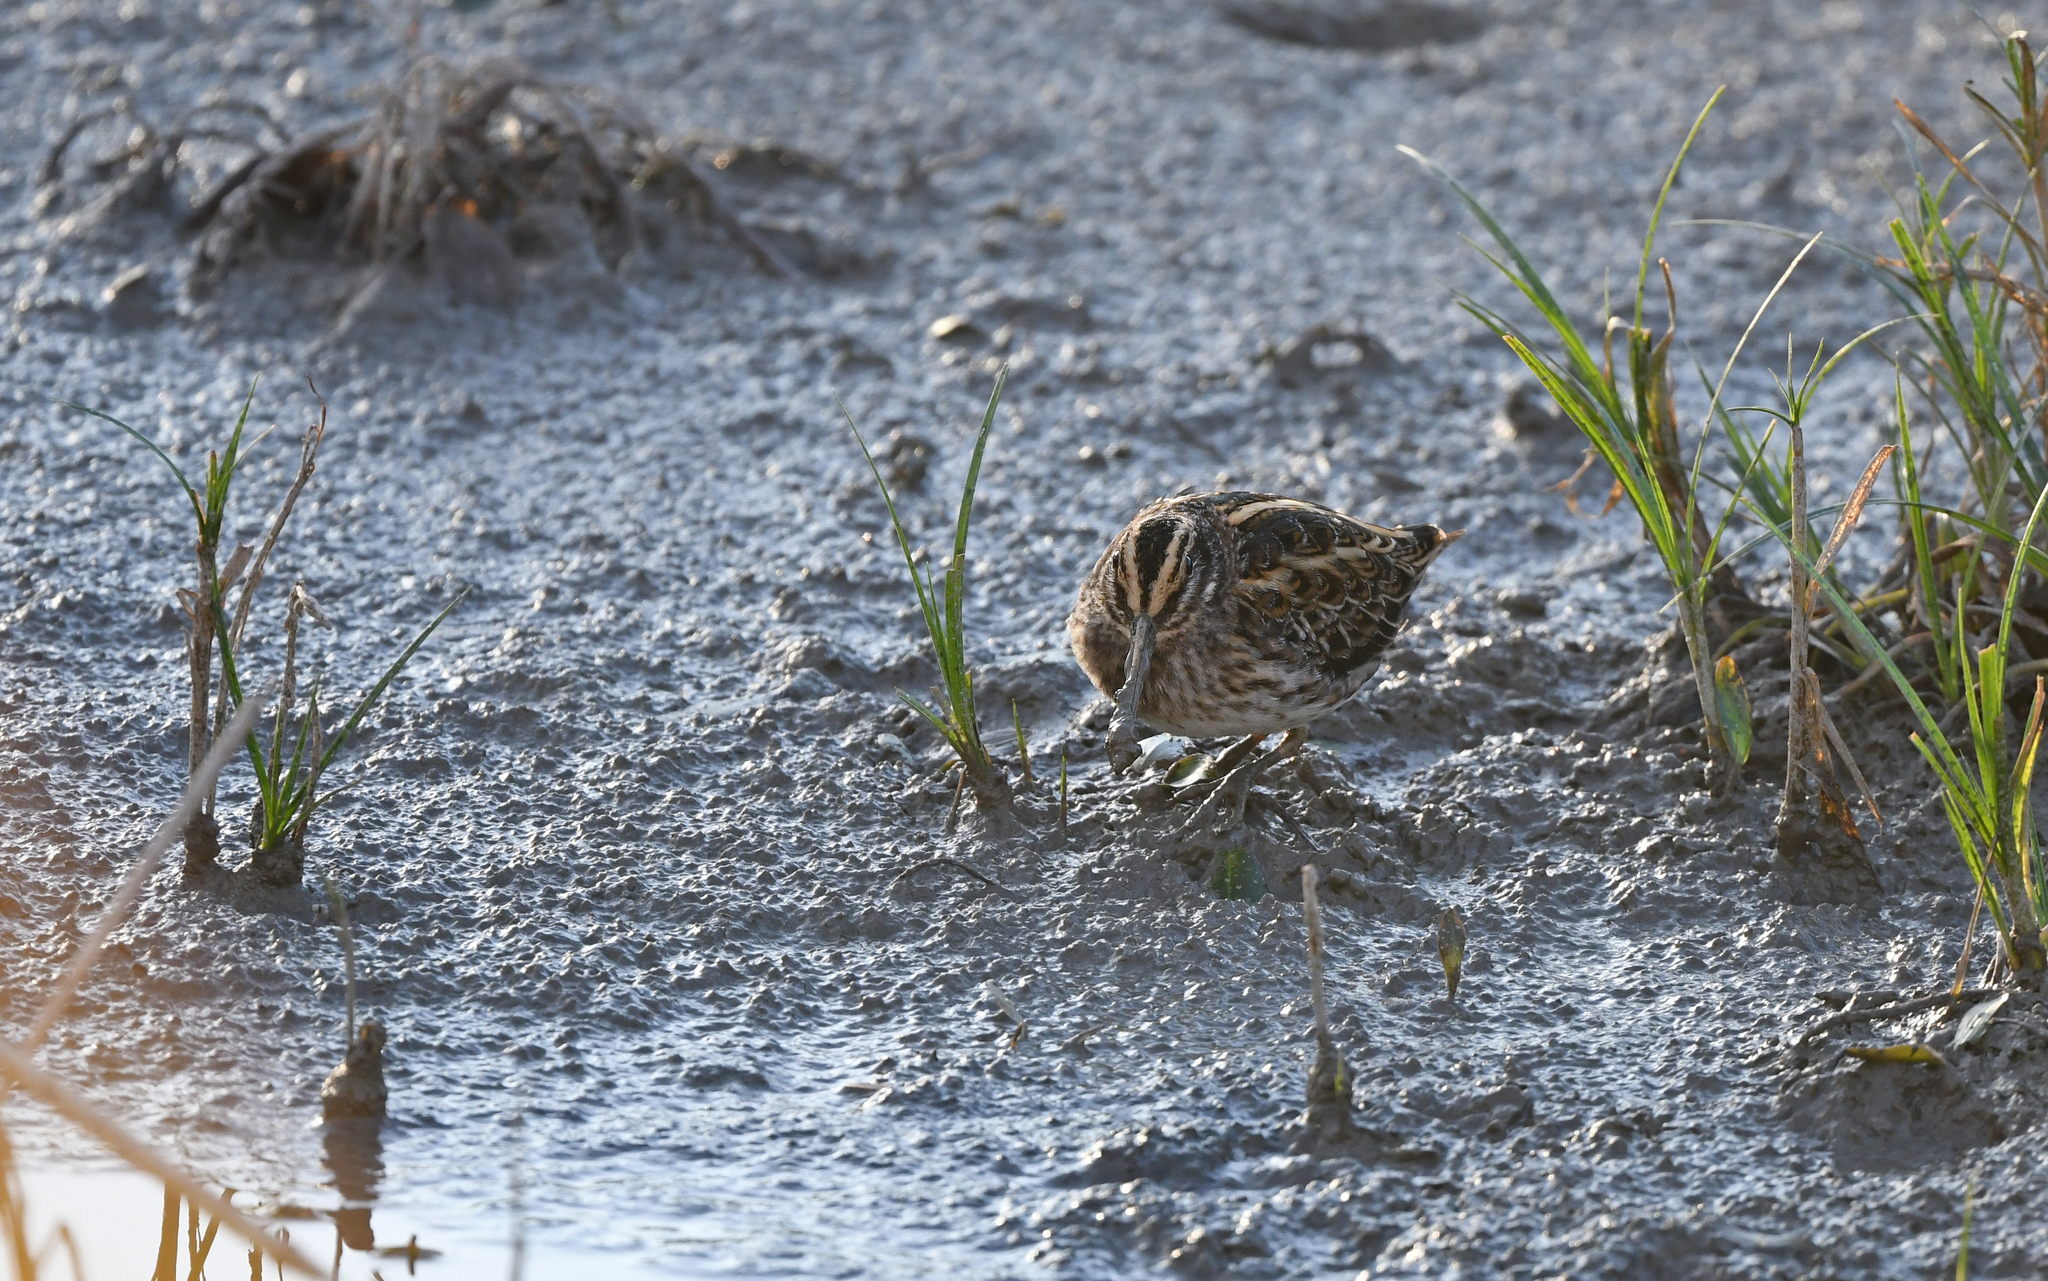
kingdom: Animalia
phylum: Chordata
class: Aves
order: Charadriiformes
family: Scolopacidae
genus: Lymnocryptes
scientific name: Lymnocryptes minimus
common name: Jack snipe
